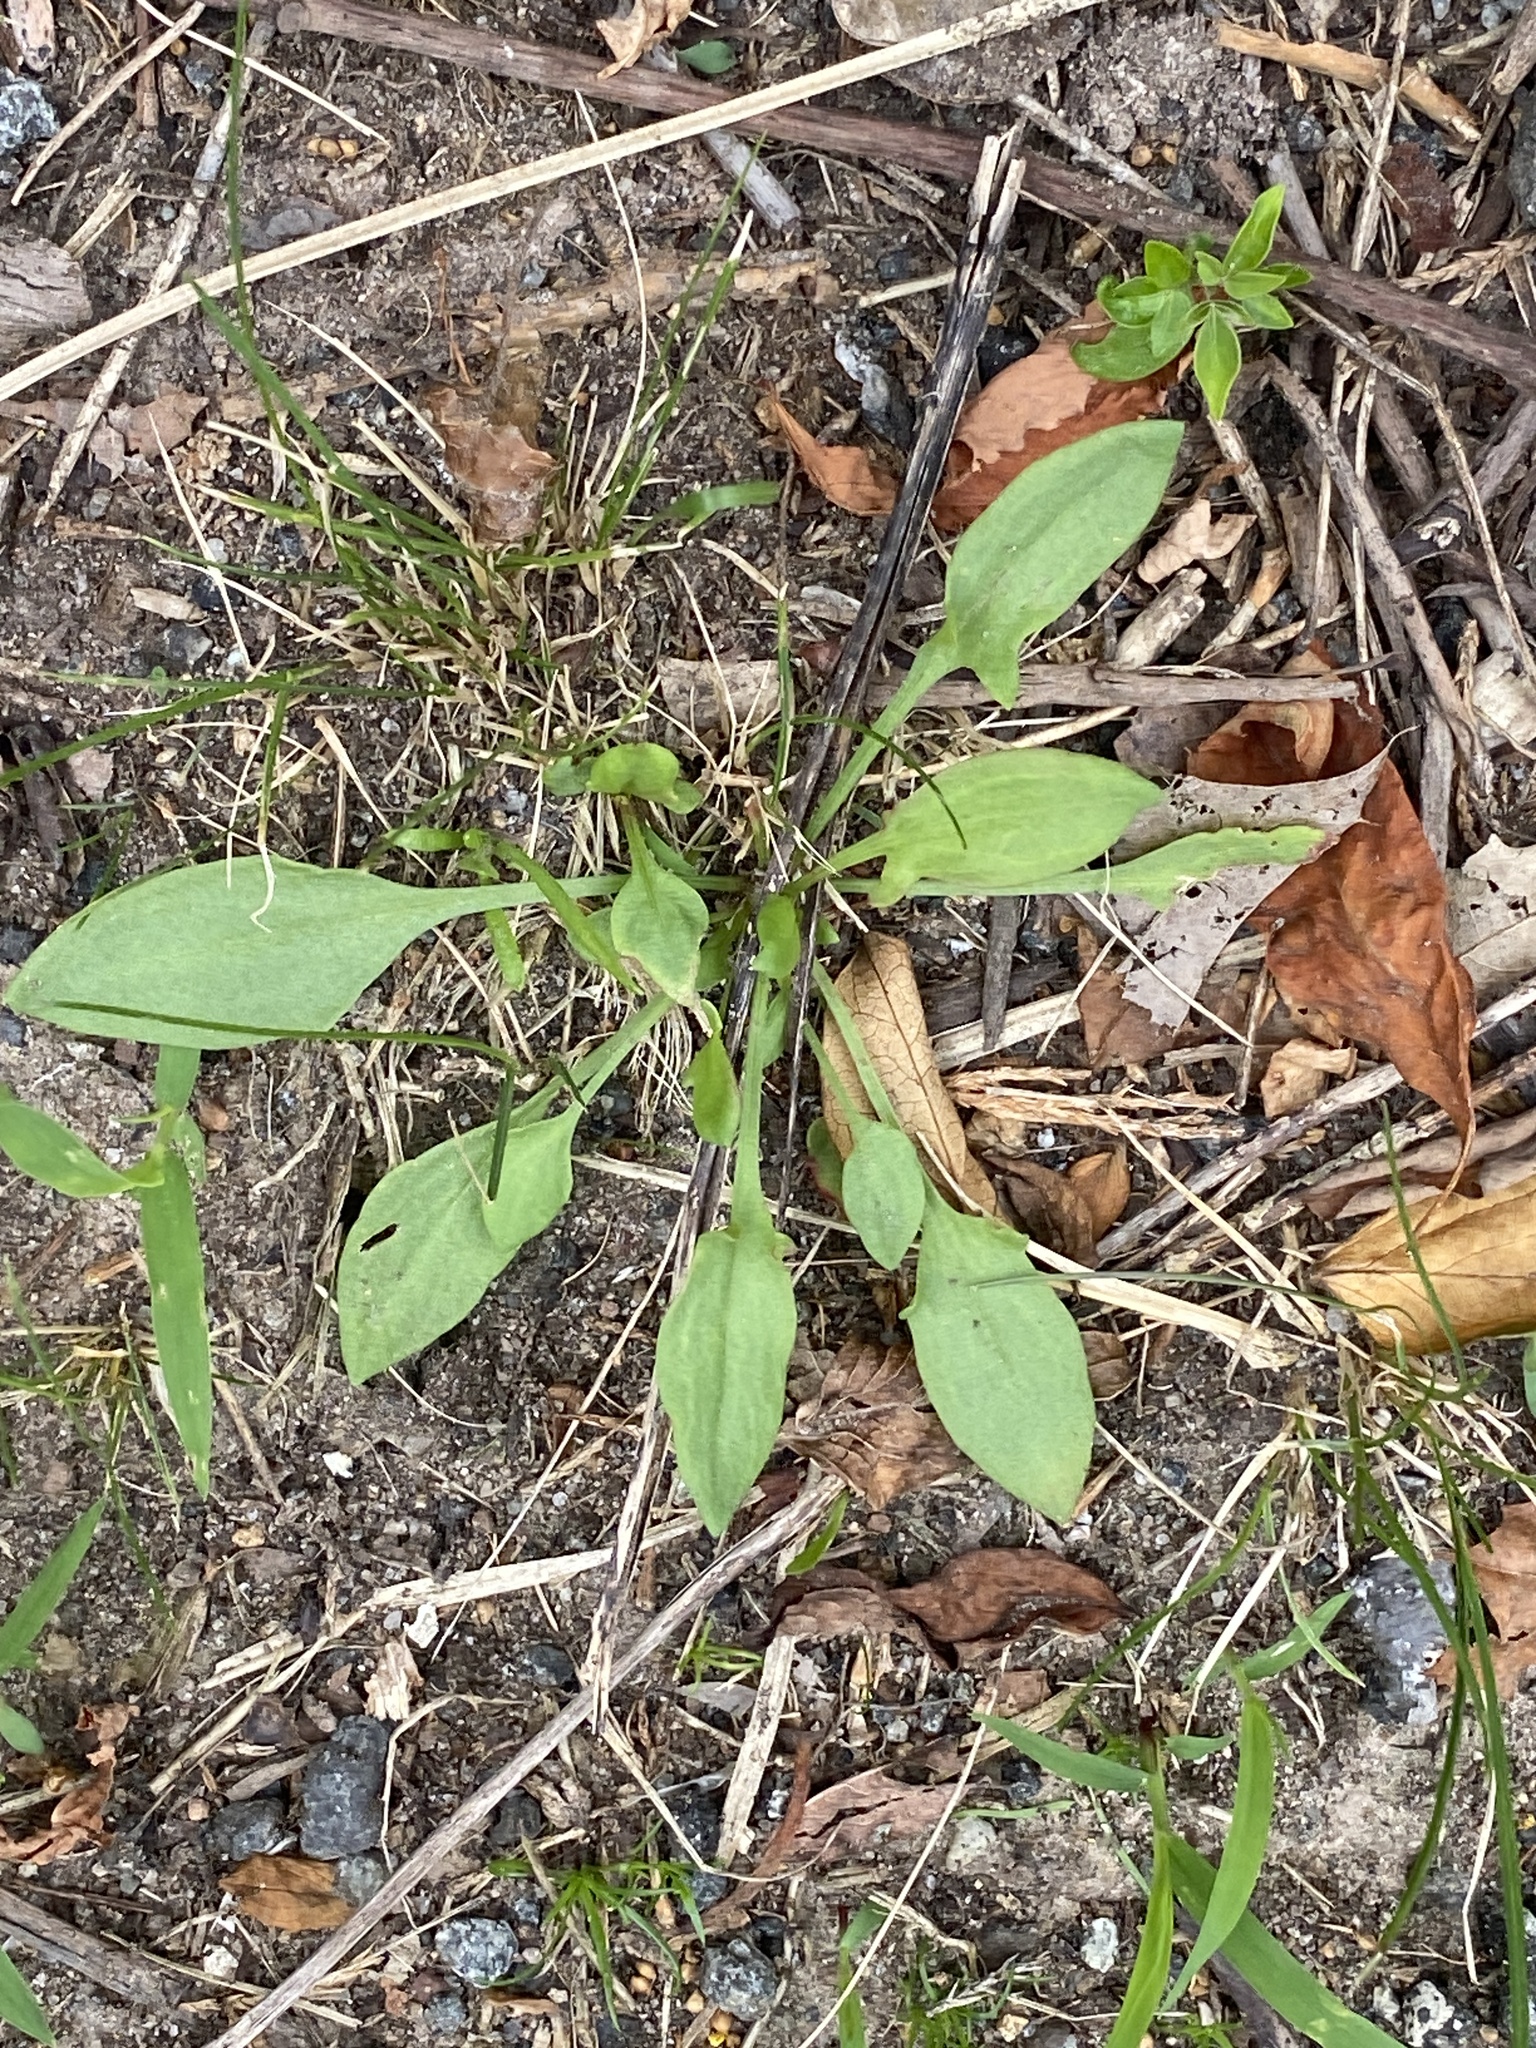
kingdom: Plantae
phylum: Tracheophyta
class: Magnoliopsida
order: Caryophyllales
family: Polygonaceae
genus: Rumex
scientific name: Rumex acetosella
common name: Common sheep sorrel
